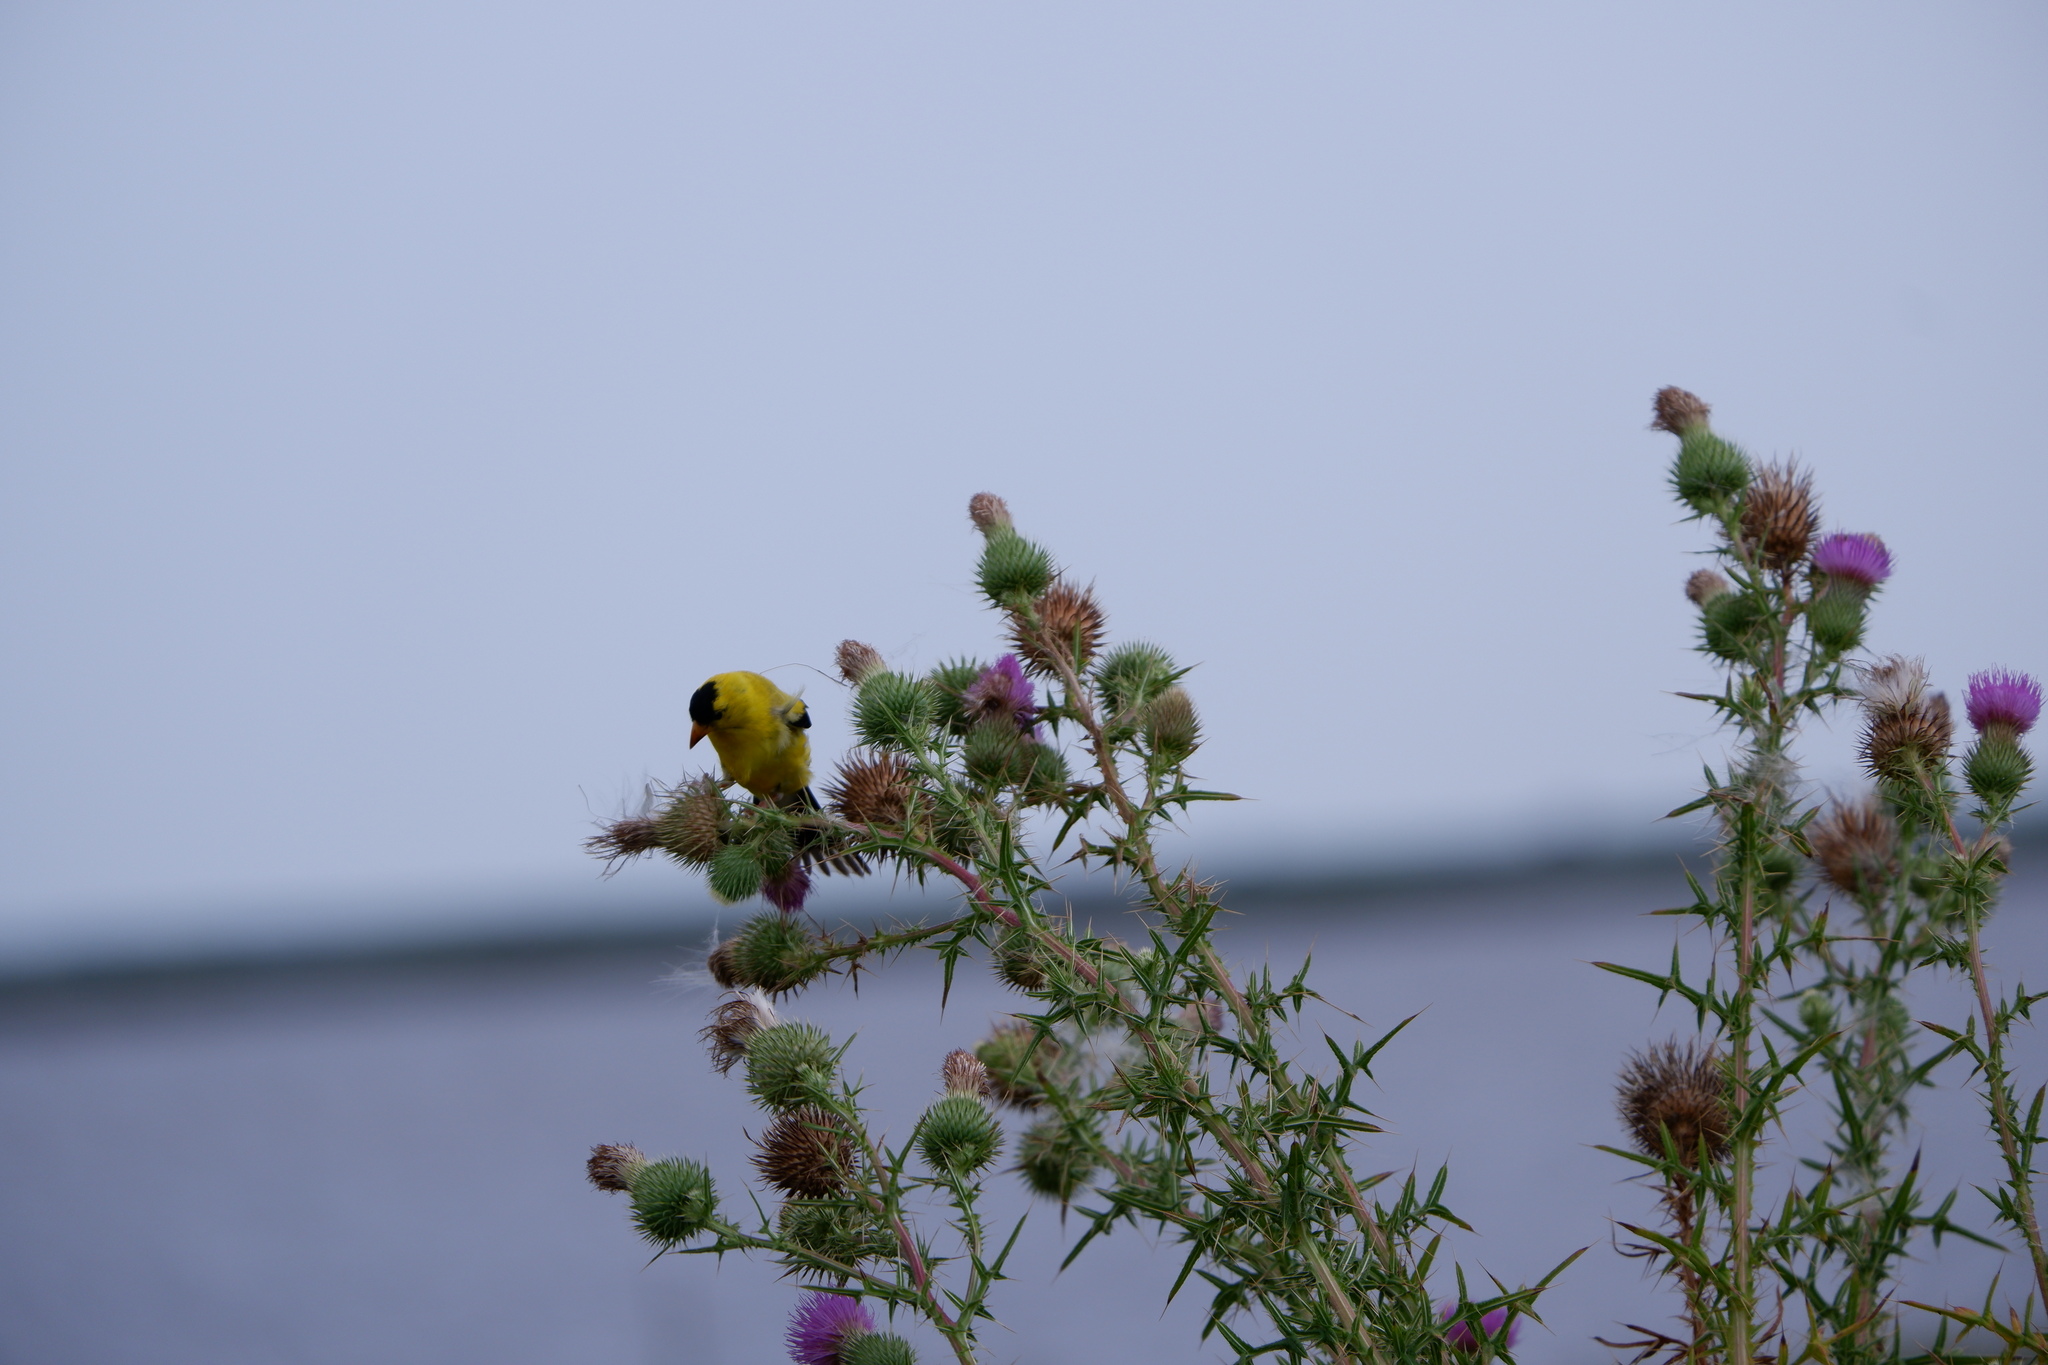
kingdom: Animalia
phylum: Chordata
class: Aves
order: Passeriformes
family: Fringillidae
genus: Spinus
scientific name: Spinus tristis
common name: American goldfinch
